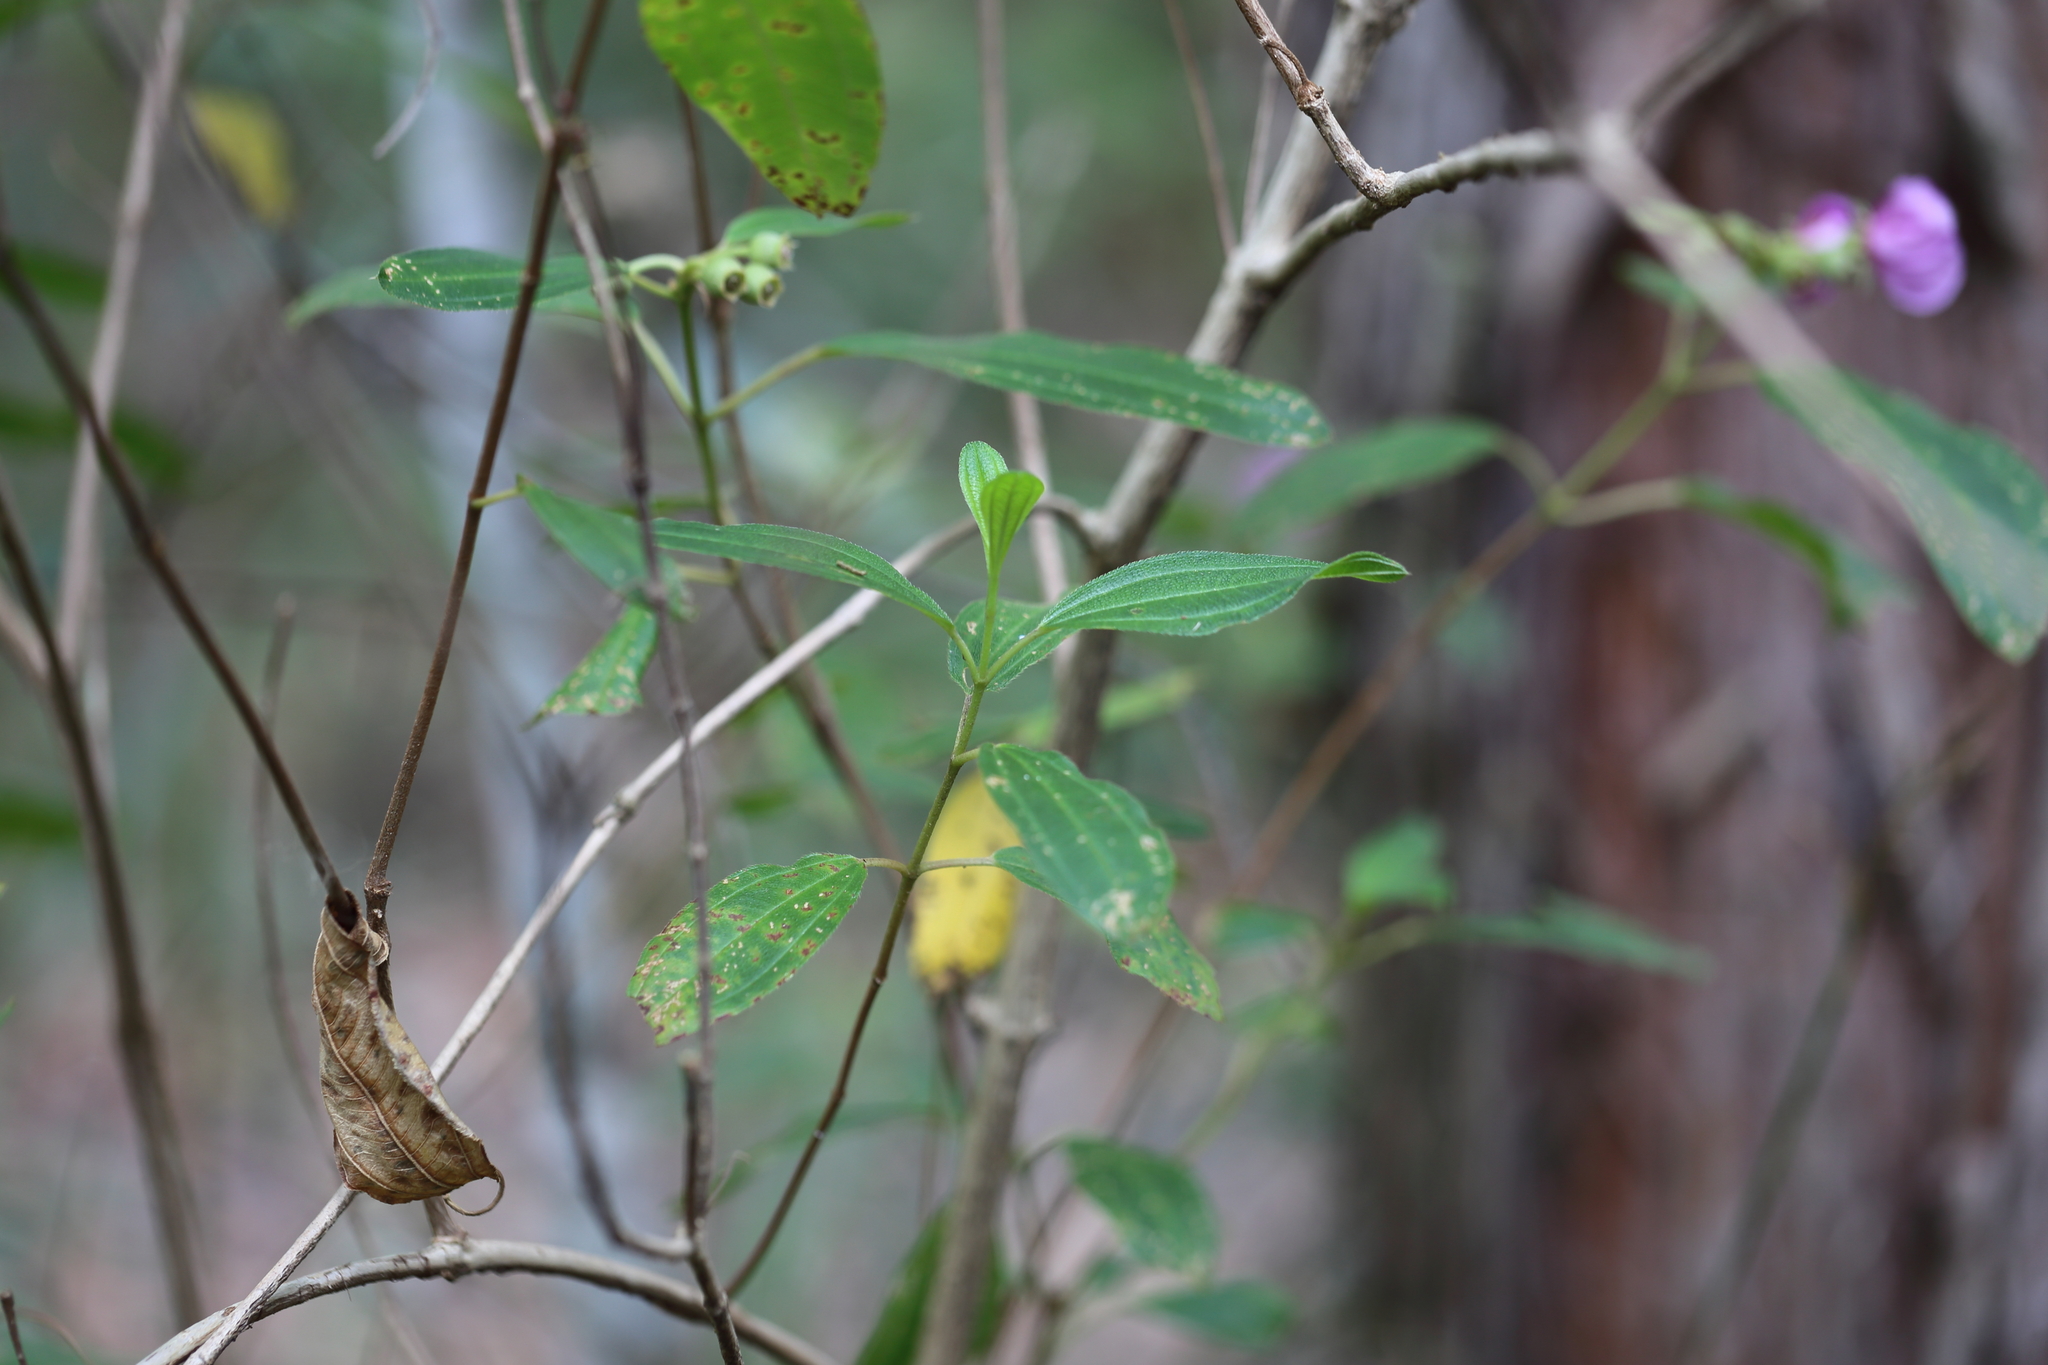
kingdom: Plantae
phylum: Tracheophyta
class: Magnoliopsida
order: Myrtales
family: Melastomataceae
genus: Melastoma
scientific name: Melastoma malabathricum
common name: Indian-rhododendron
